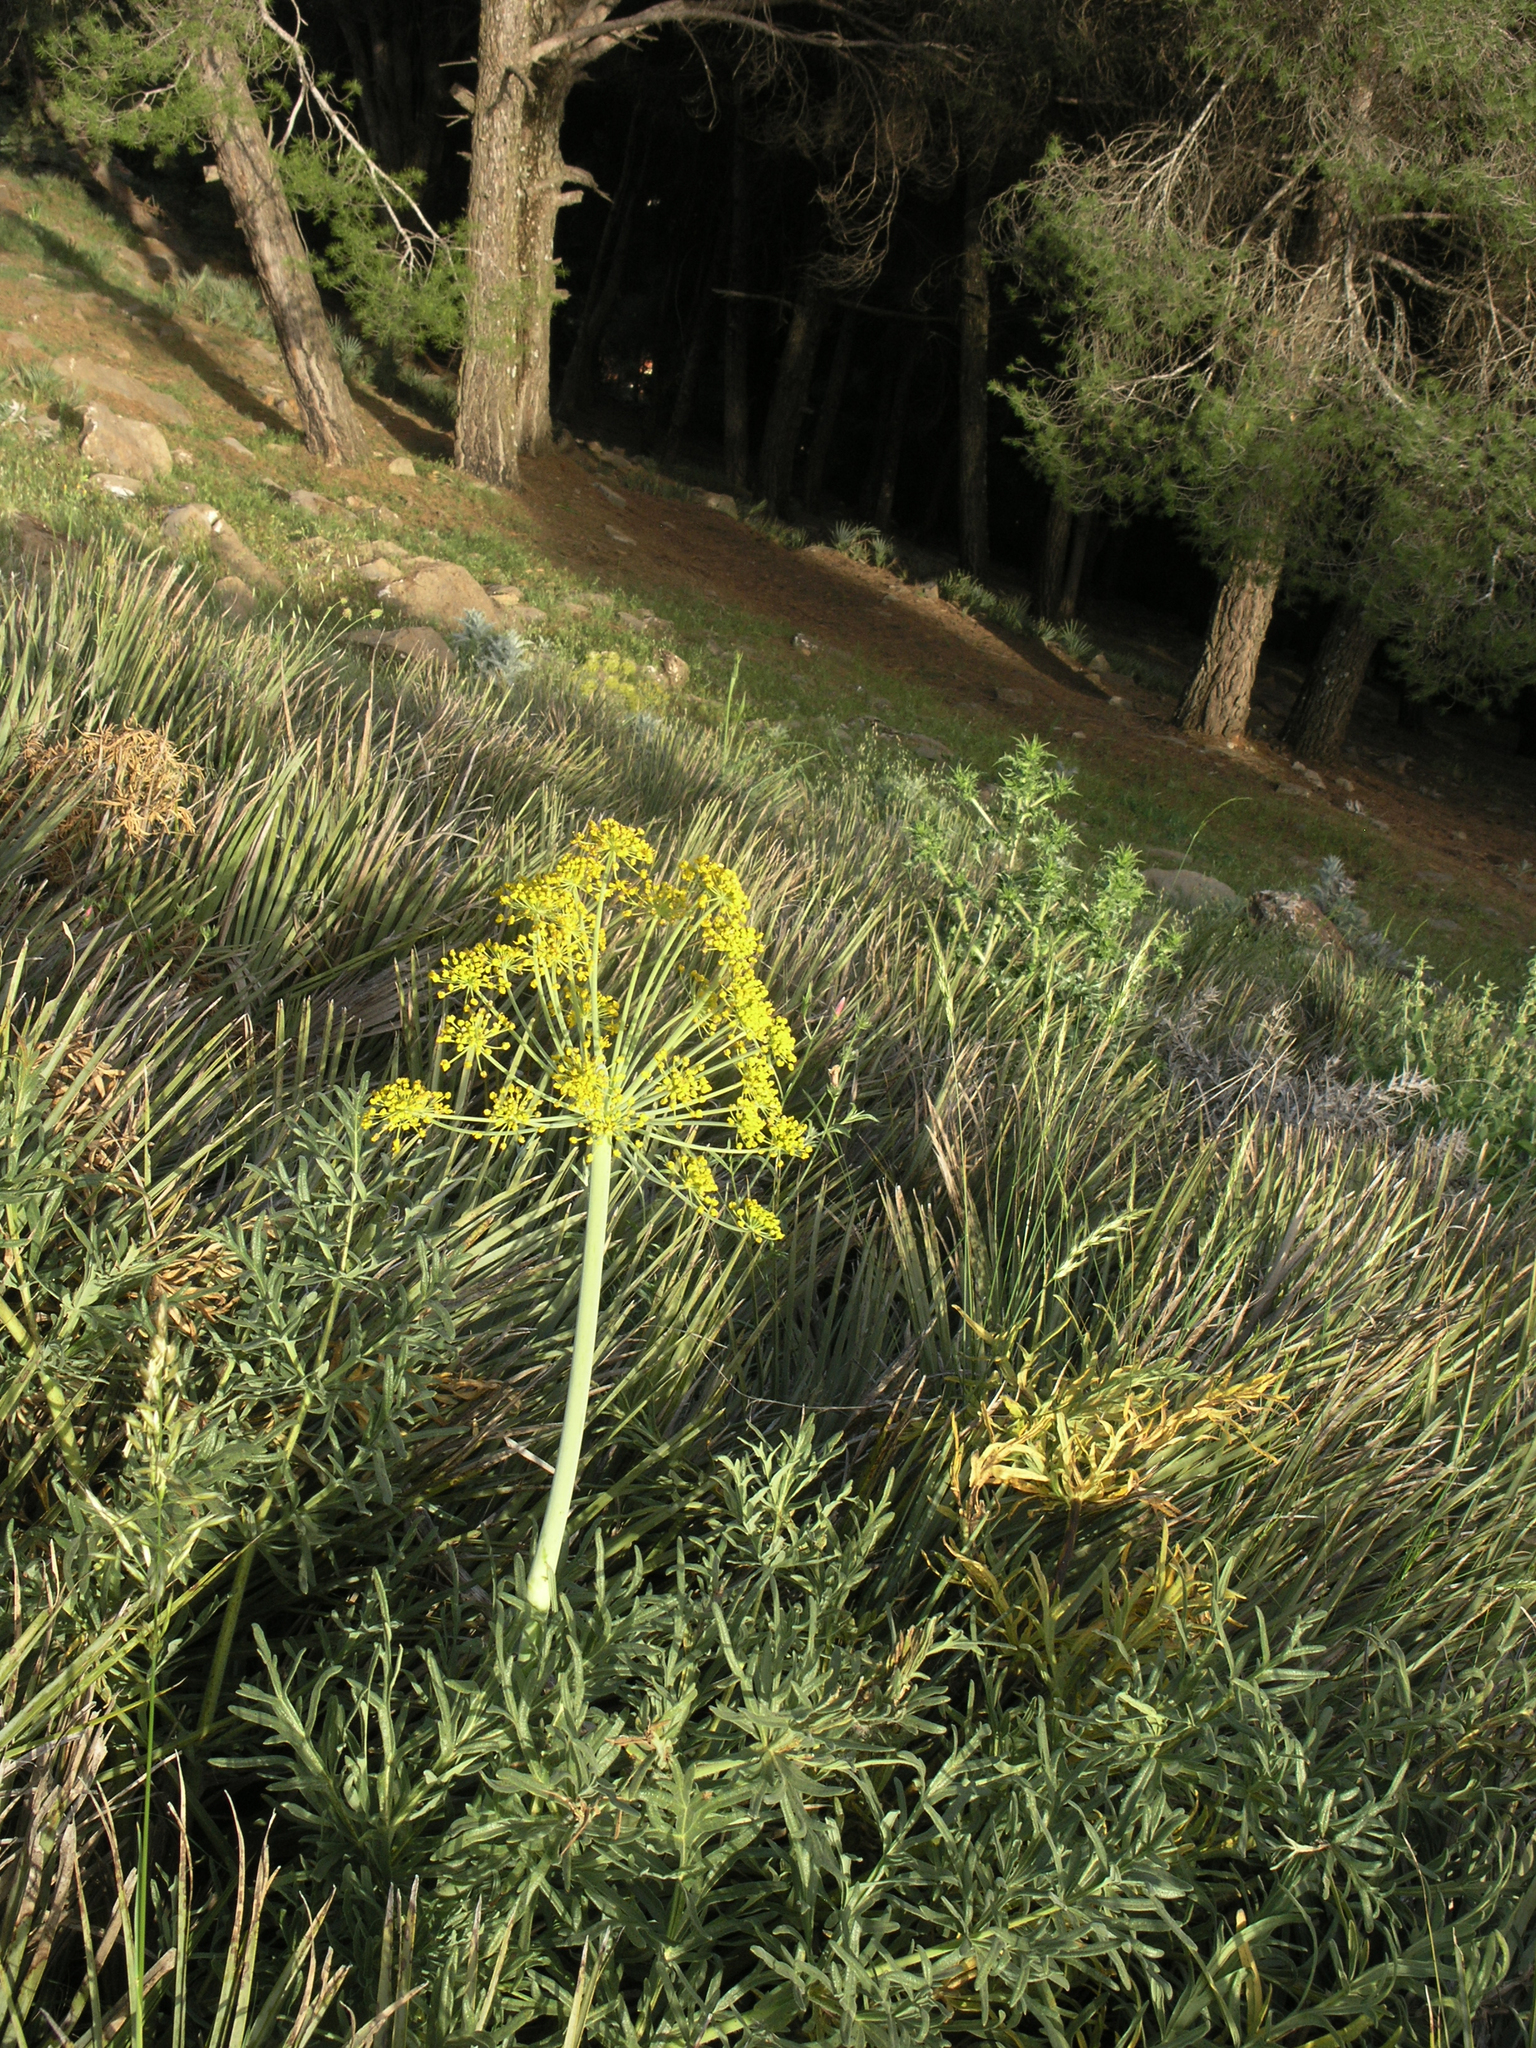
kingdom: Plantae
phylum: Tracheophyta
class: Magnoliopsida
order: Apiales
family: Apiaceae
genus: Thapsia
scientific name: Thapsia transtagana
